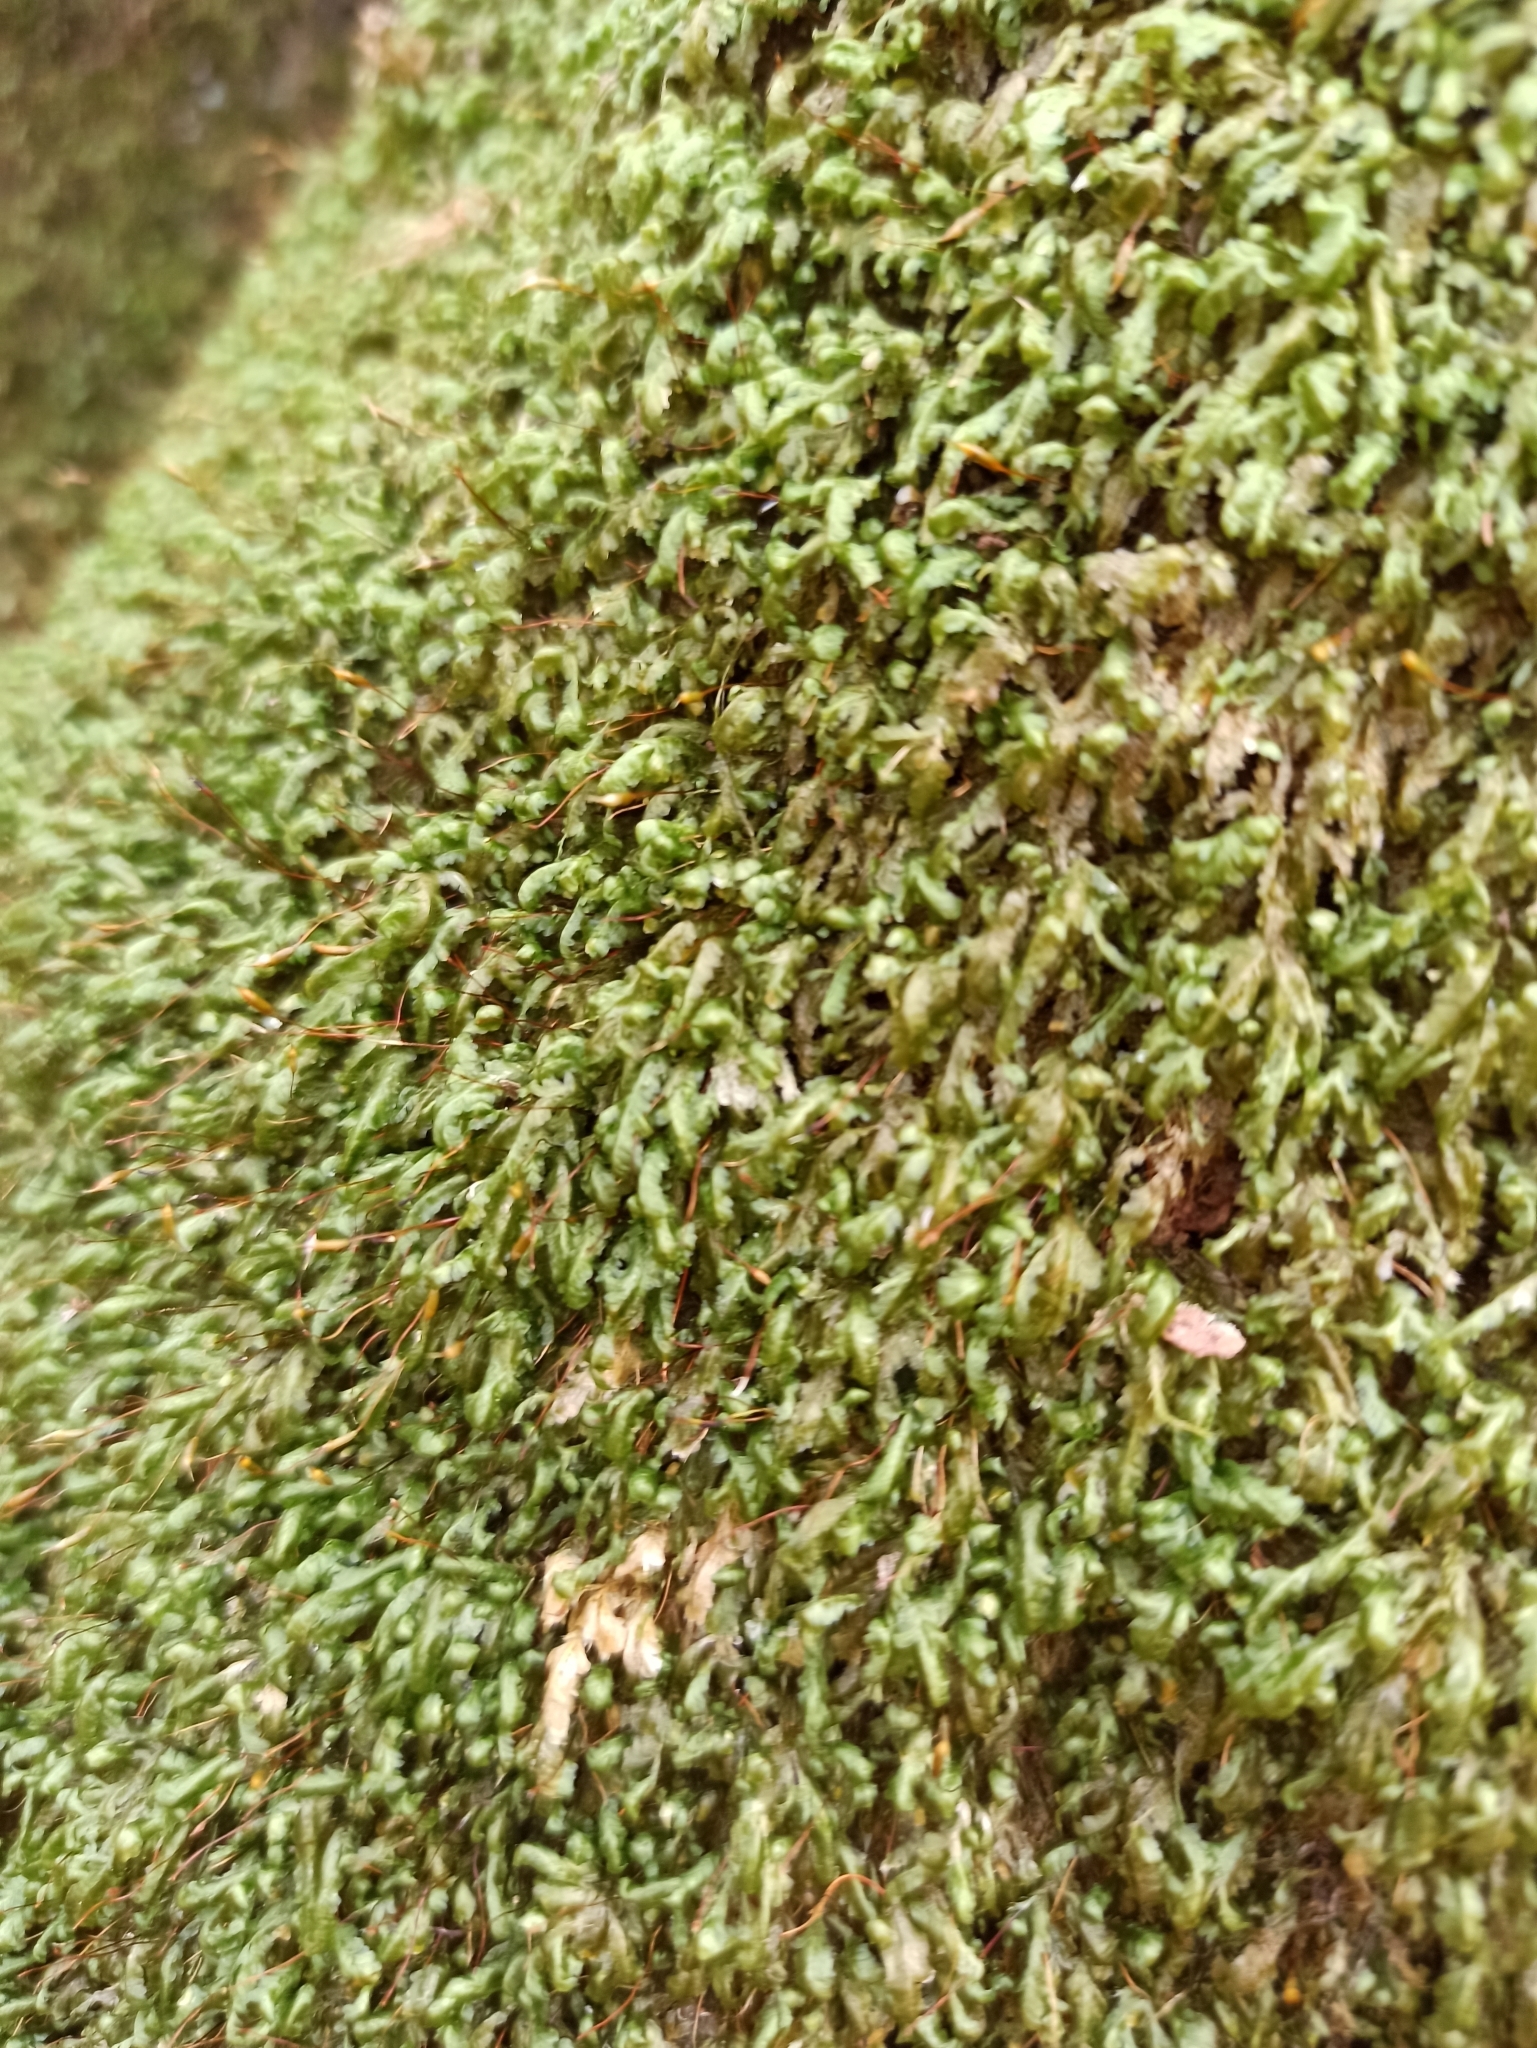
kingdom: Plantae
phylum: Bryophyta
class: Bryopsida
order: Hypnales
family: Neckeraceae
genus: Homalia
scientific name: Homalia trichomanoides
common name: Lime homalia moss
